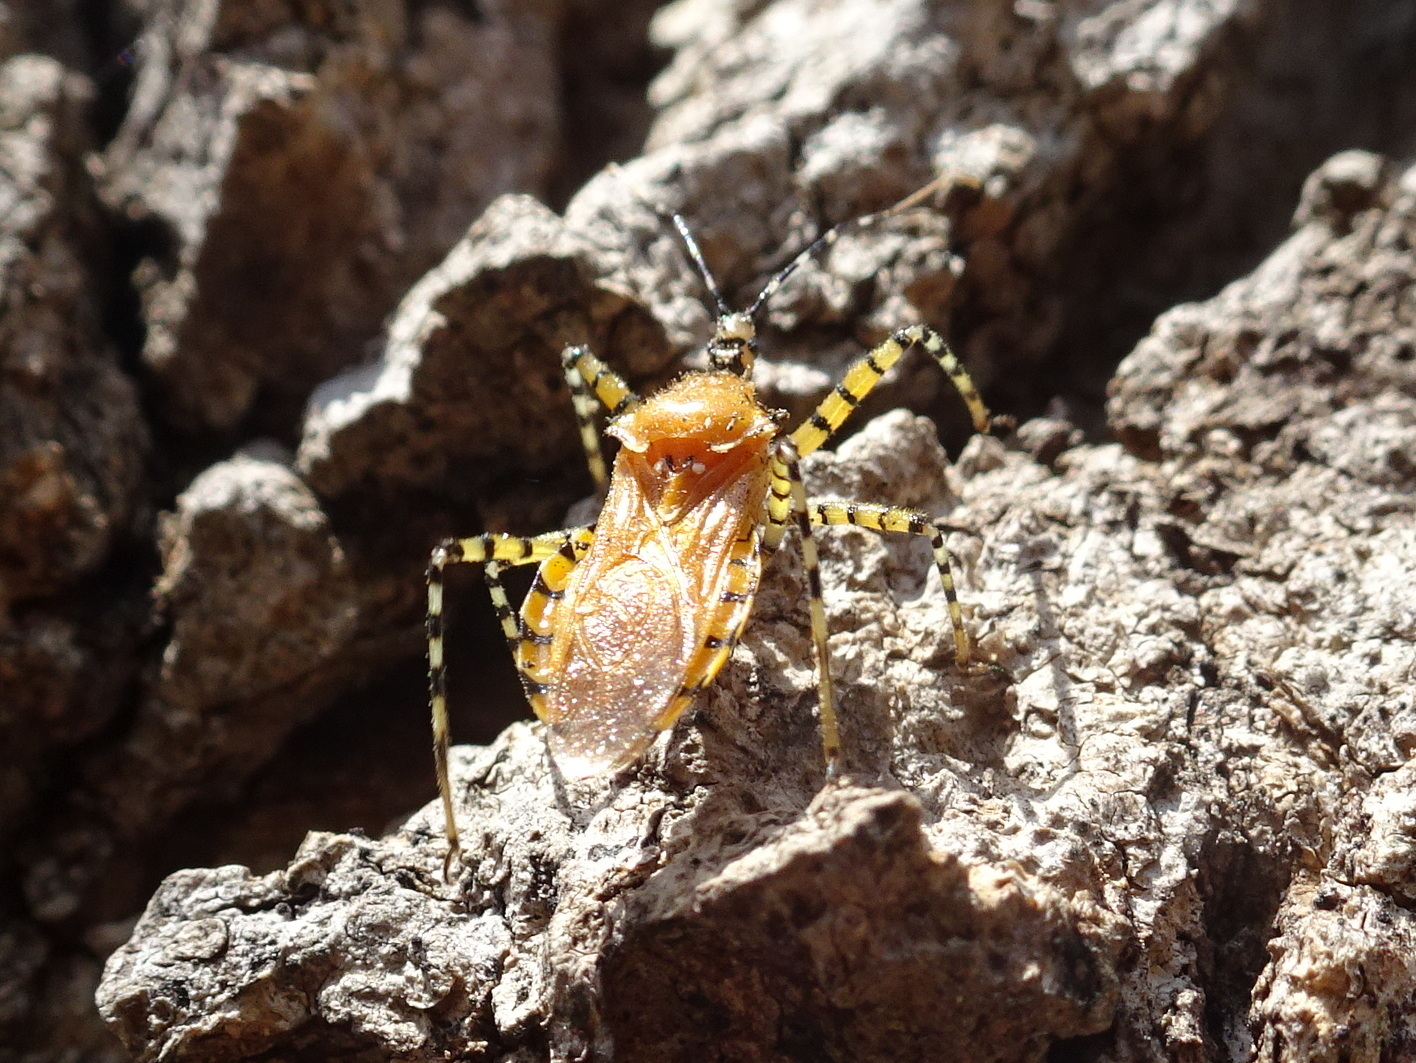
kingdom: Animalia
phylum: Arthropoda
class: Insecta
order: Hemiptera
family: Reduviidae
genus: Pselliopus
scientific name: Pselliopus barberi
